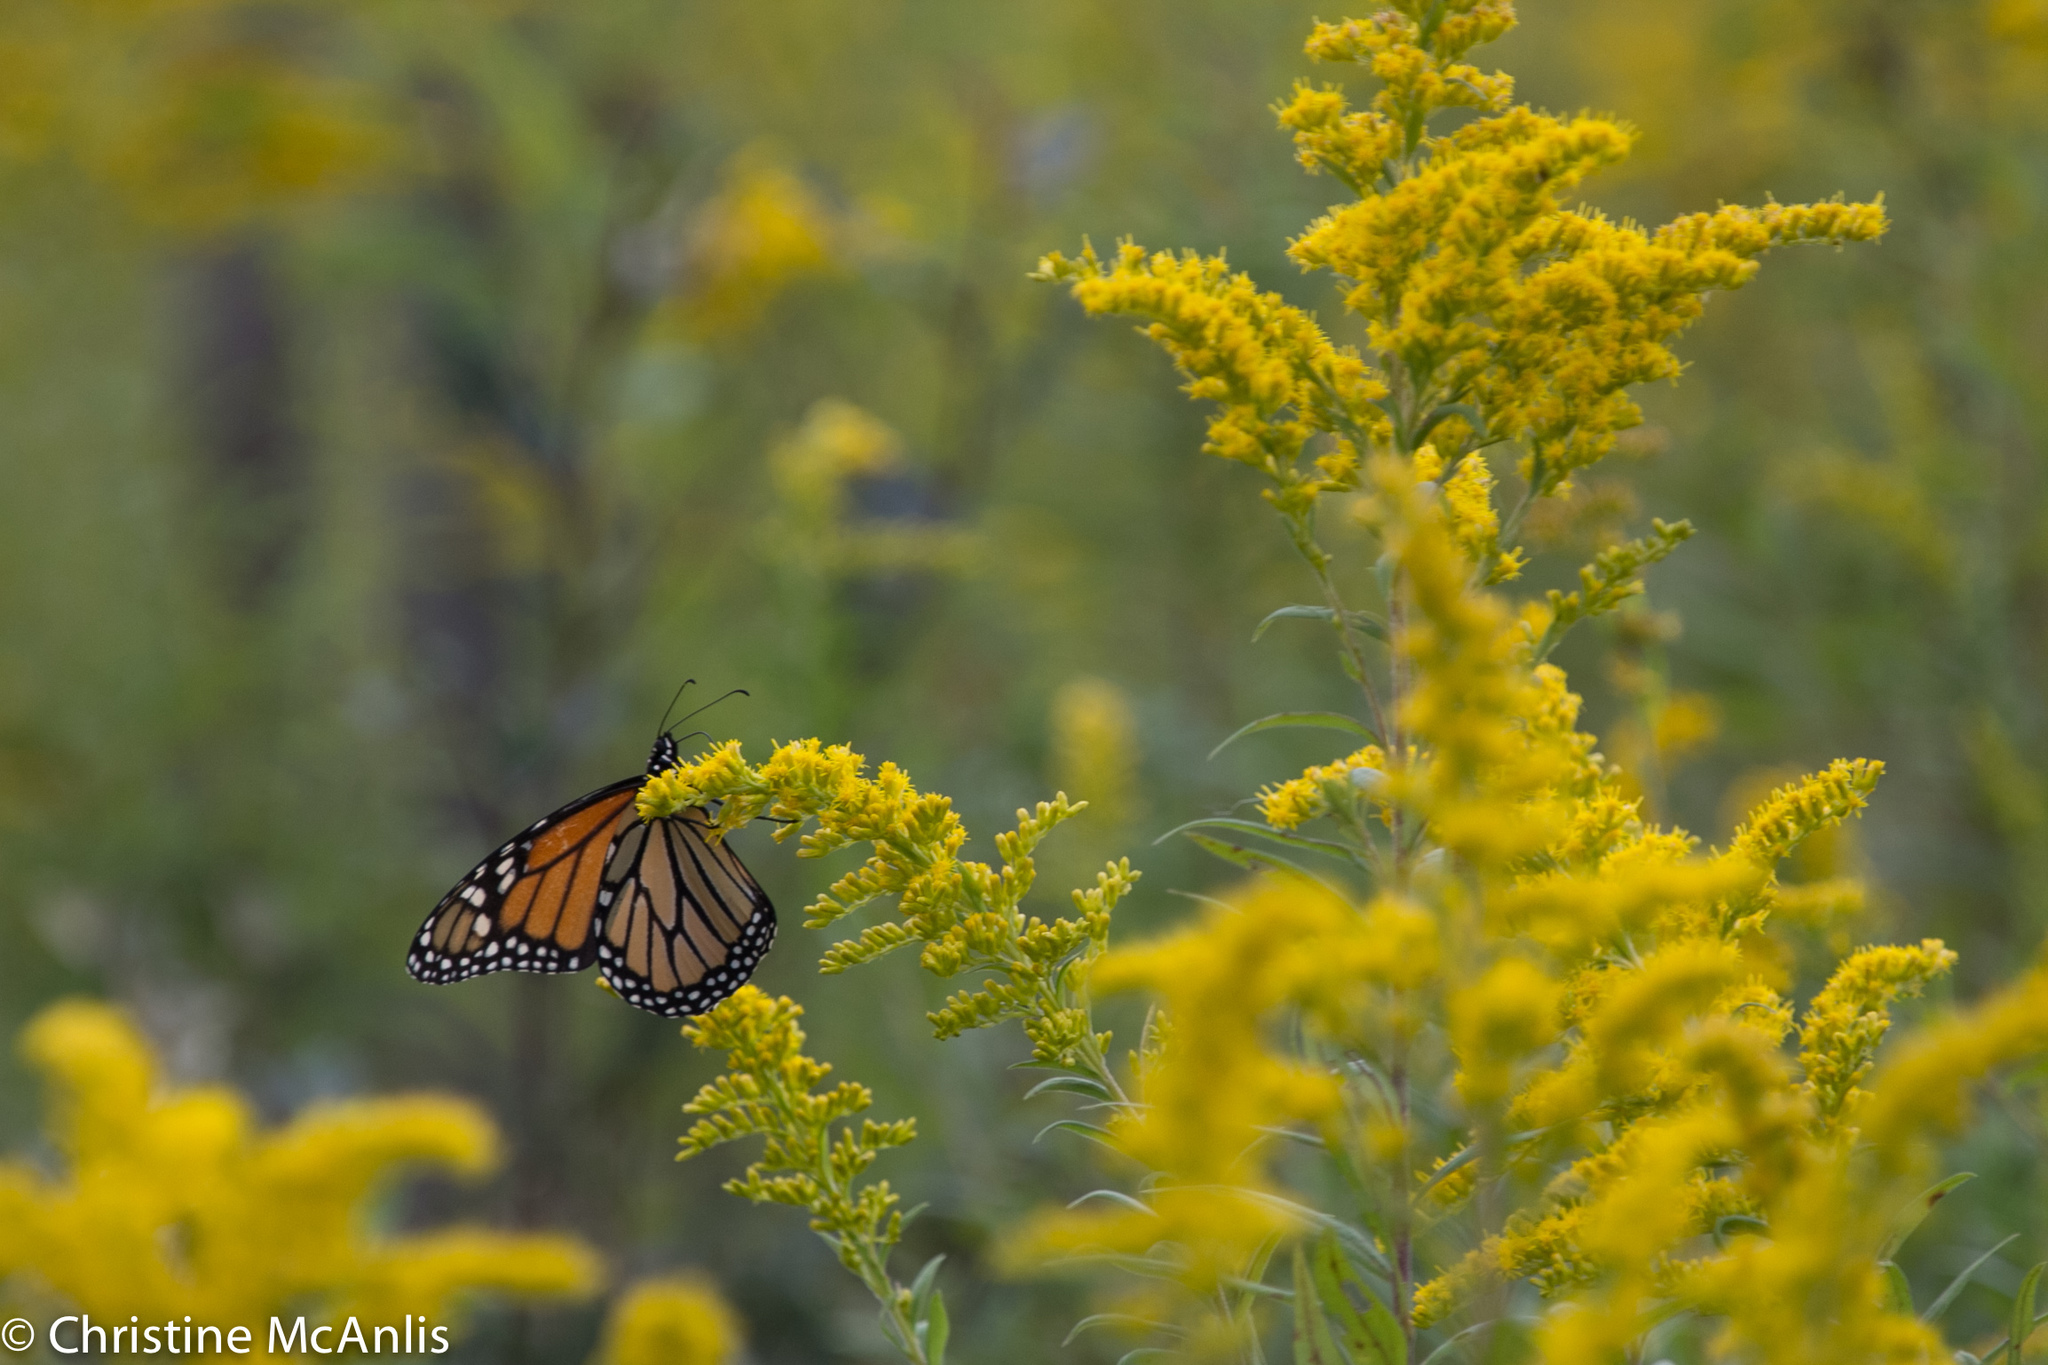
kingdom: Animalia
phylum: Arthropoda
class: Insecta
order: Lepidoptera
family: Nymphalidae
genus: Danaus
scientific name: Danaus plexippus
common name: Monarch
